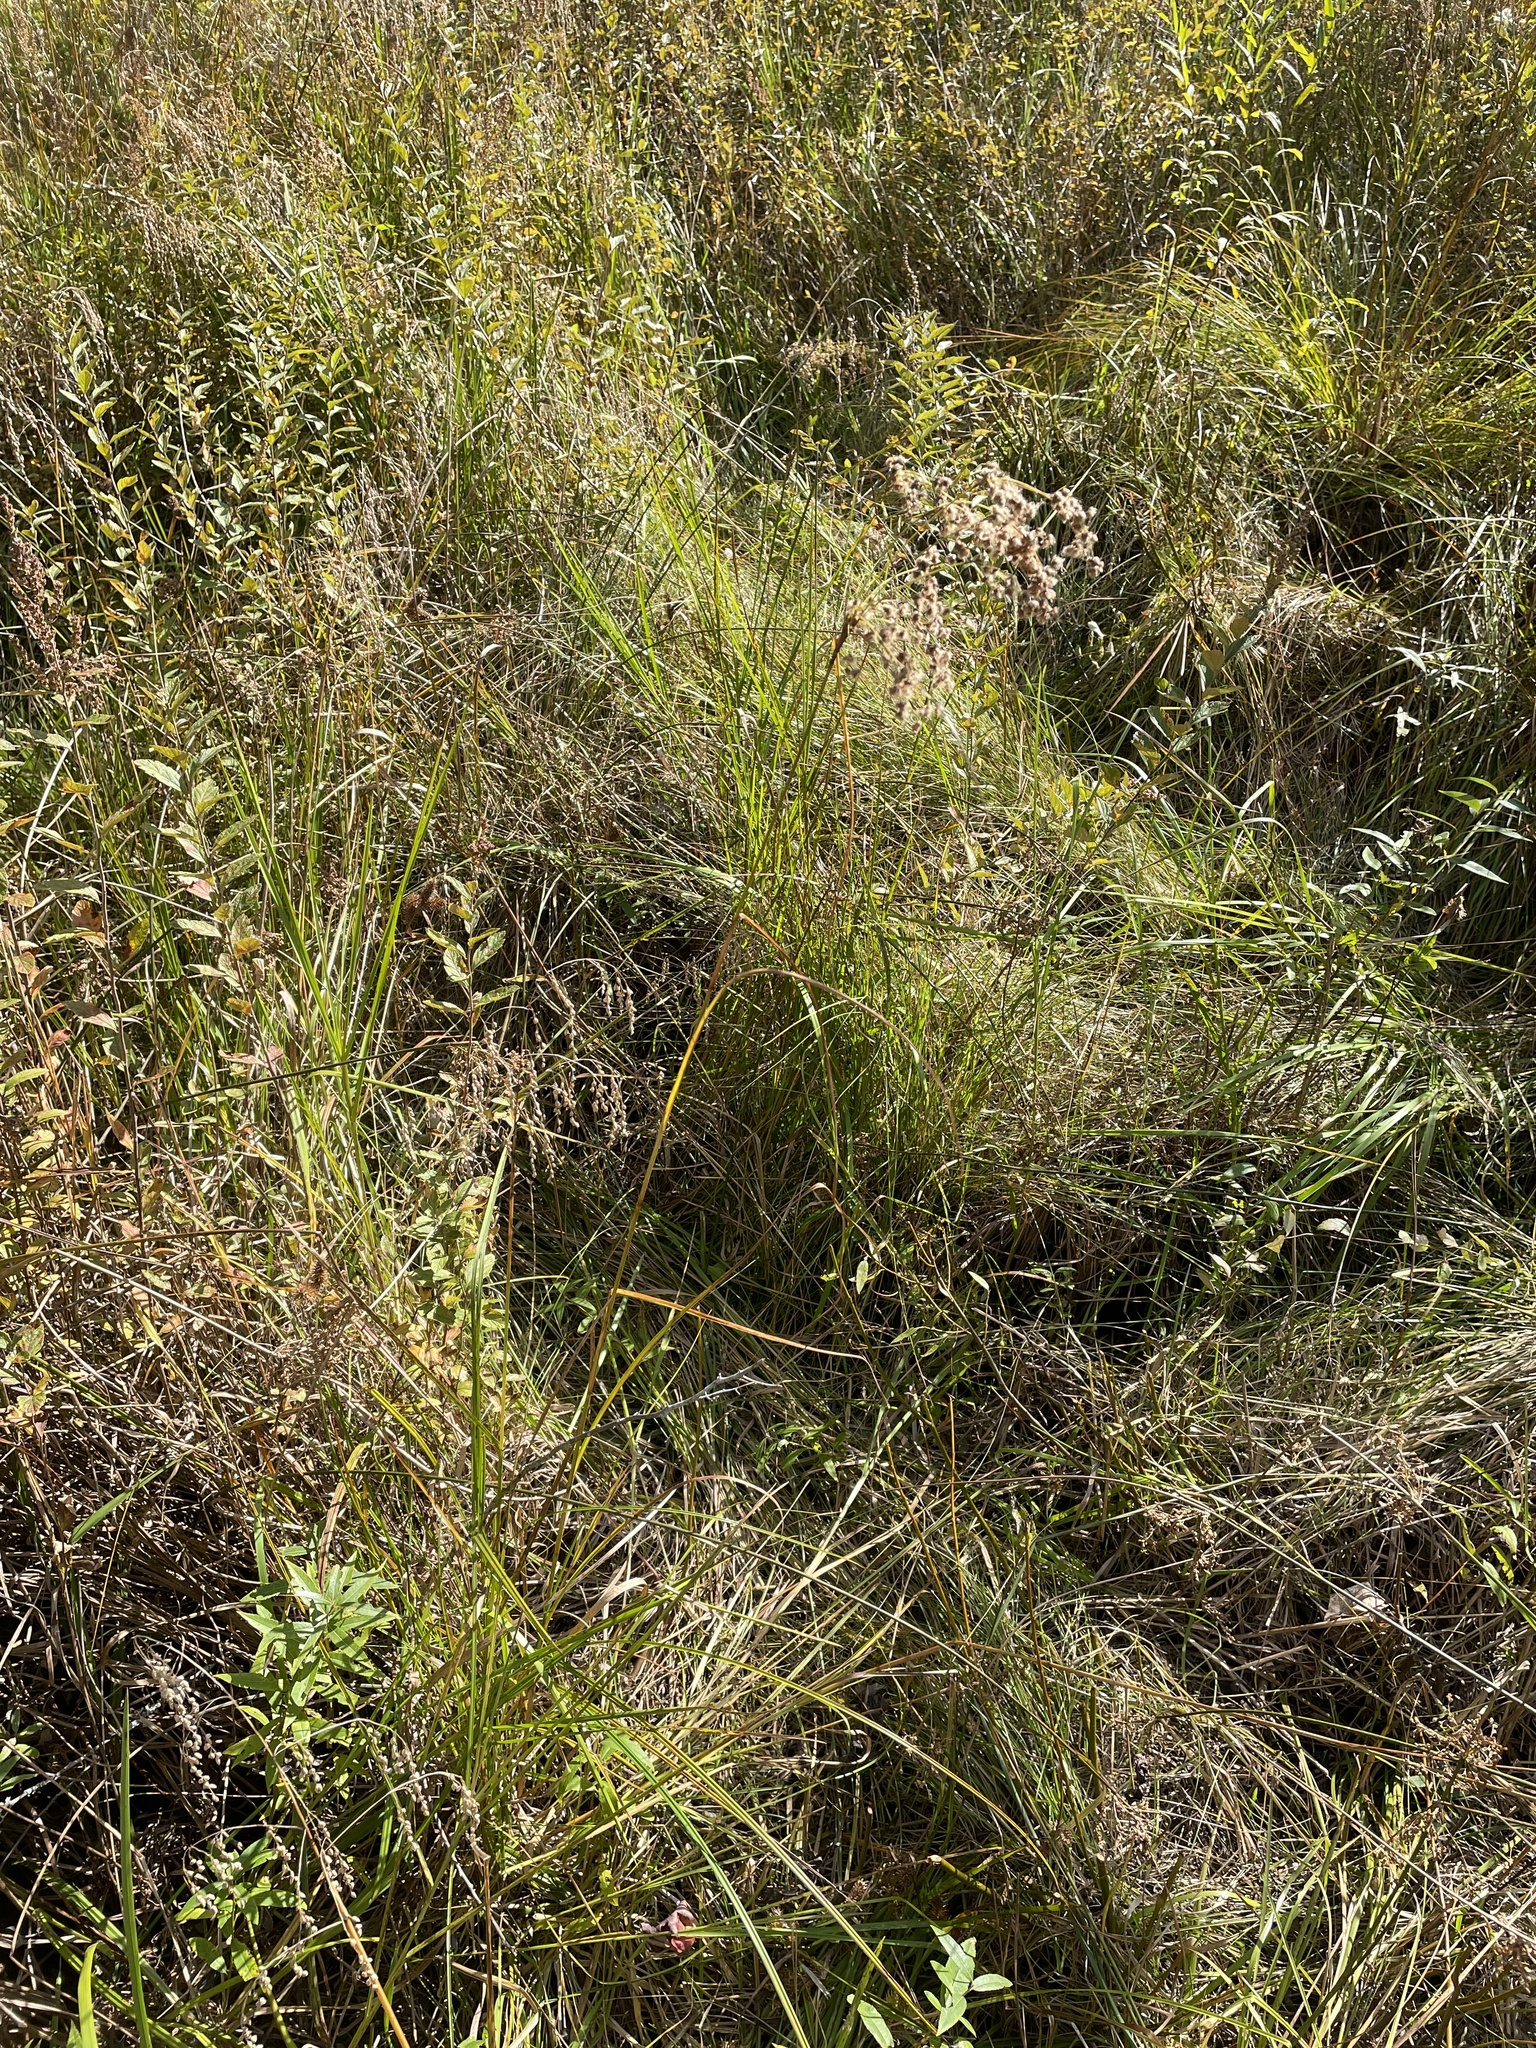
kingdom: Plantae
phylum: Tracheophyta
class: Liliopsida
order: Poales
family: Cyperaceae
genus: Scirpus
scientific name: Scirpus cyperinus
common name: Black-sheathed bulrush
